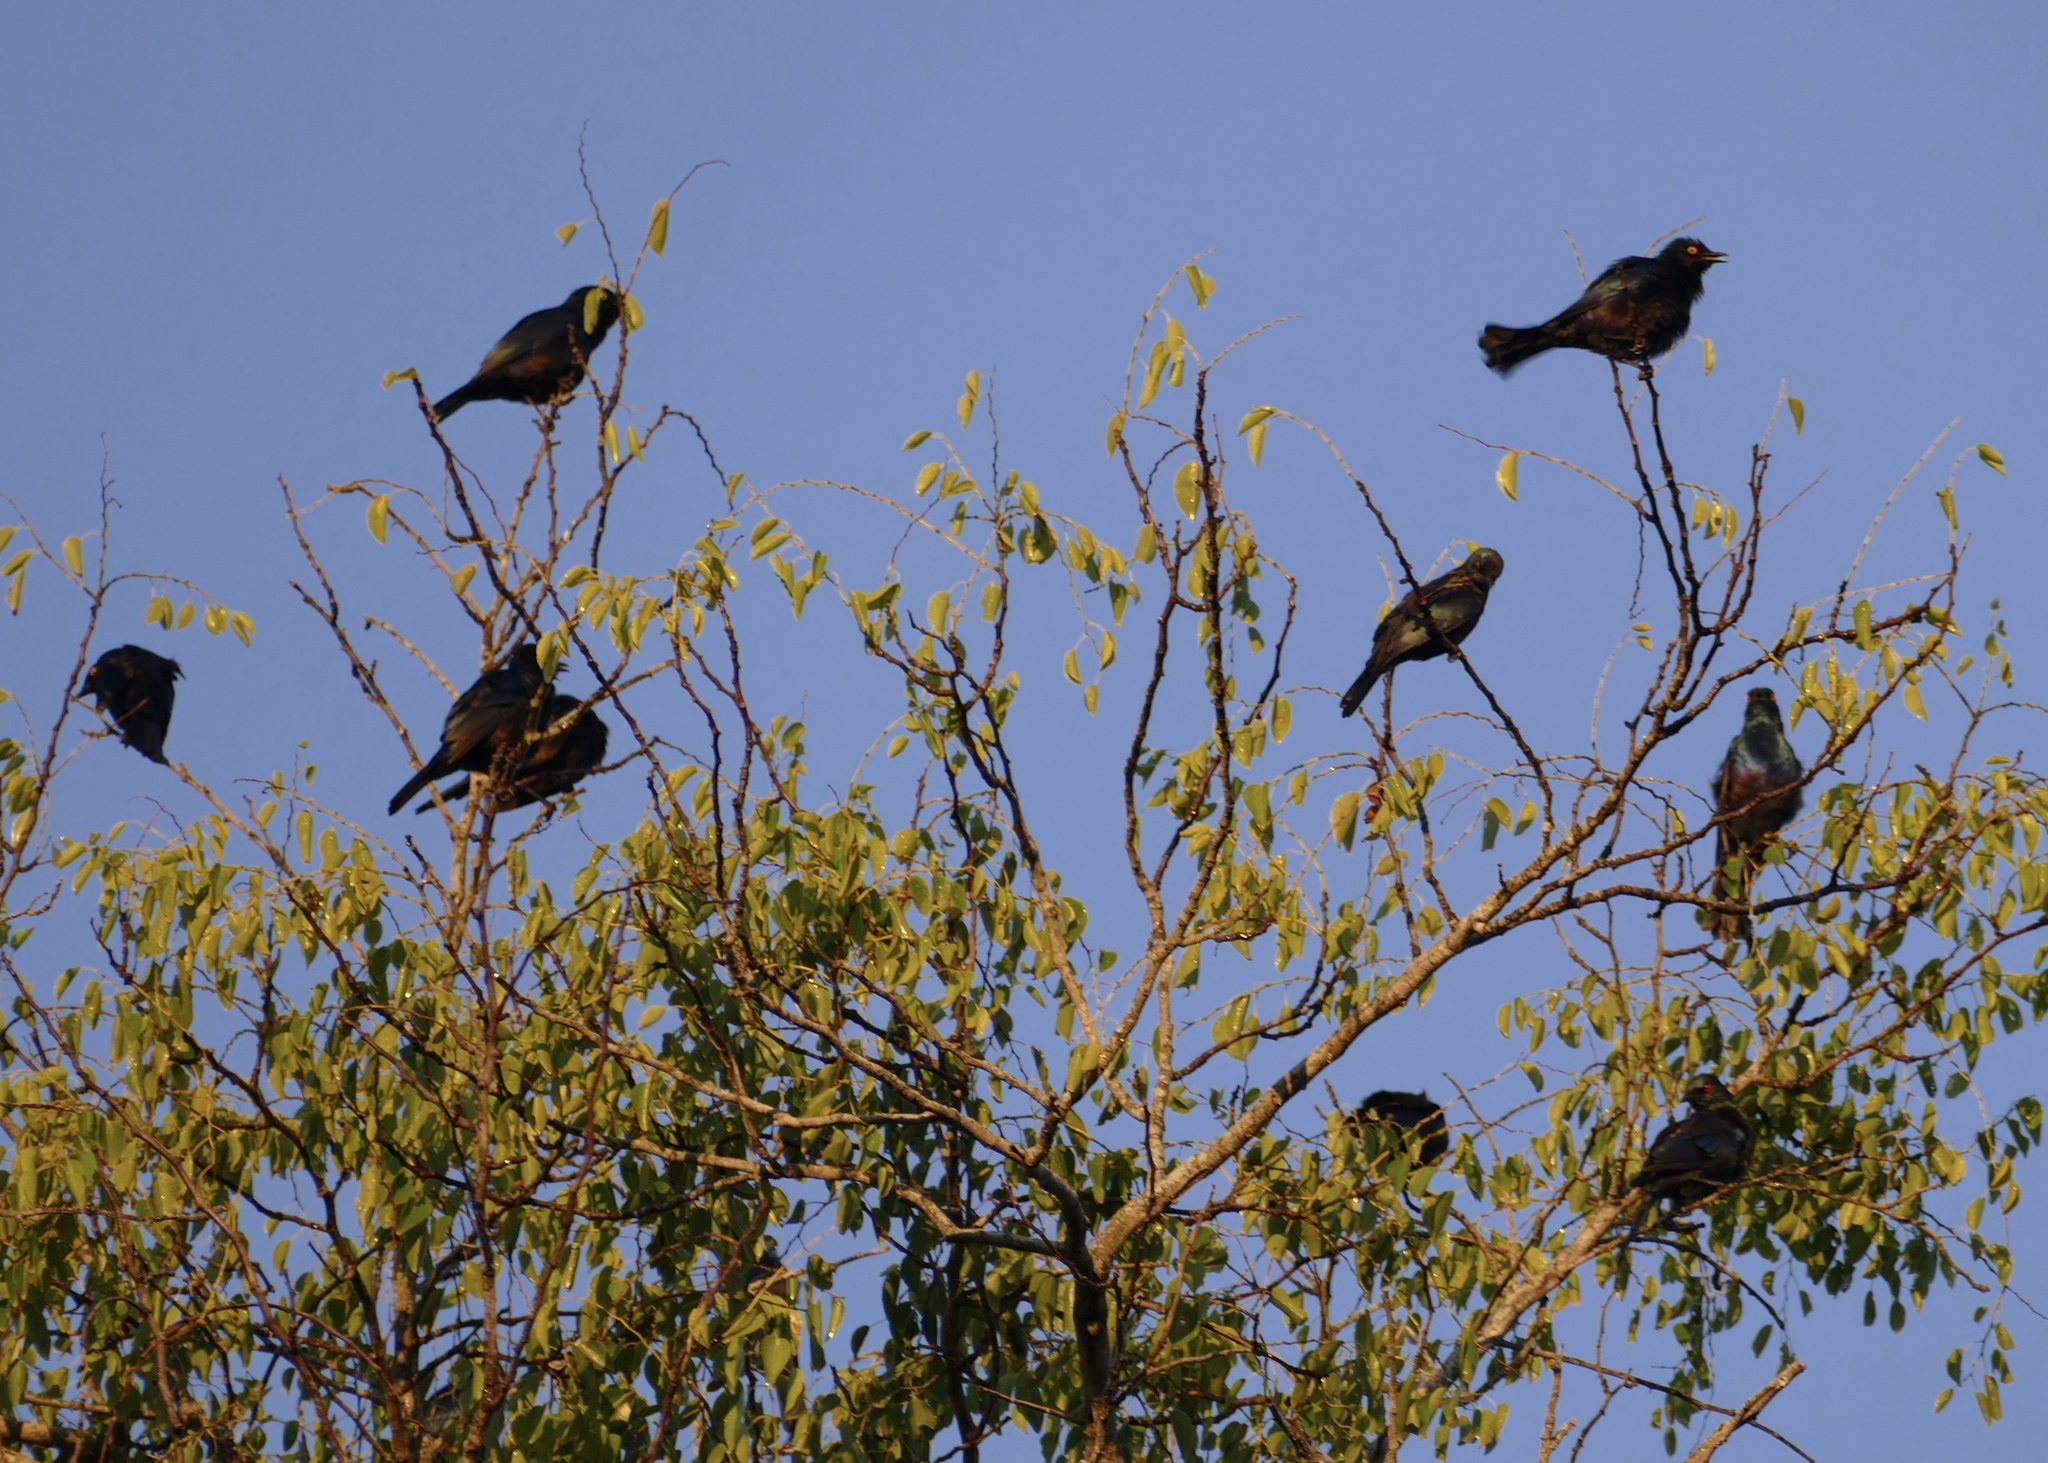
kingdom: Animalia
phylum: Chordata
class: Aves
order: Passeriformes
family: Sturnidae
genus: Notopholia
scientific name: Notopholia corrusca
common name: Black-bellied starling
